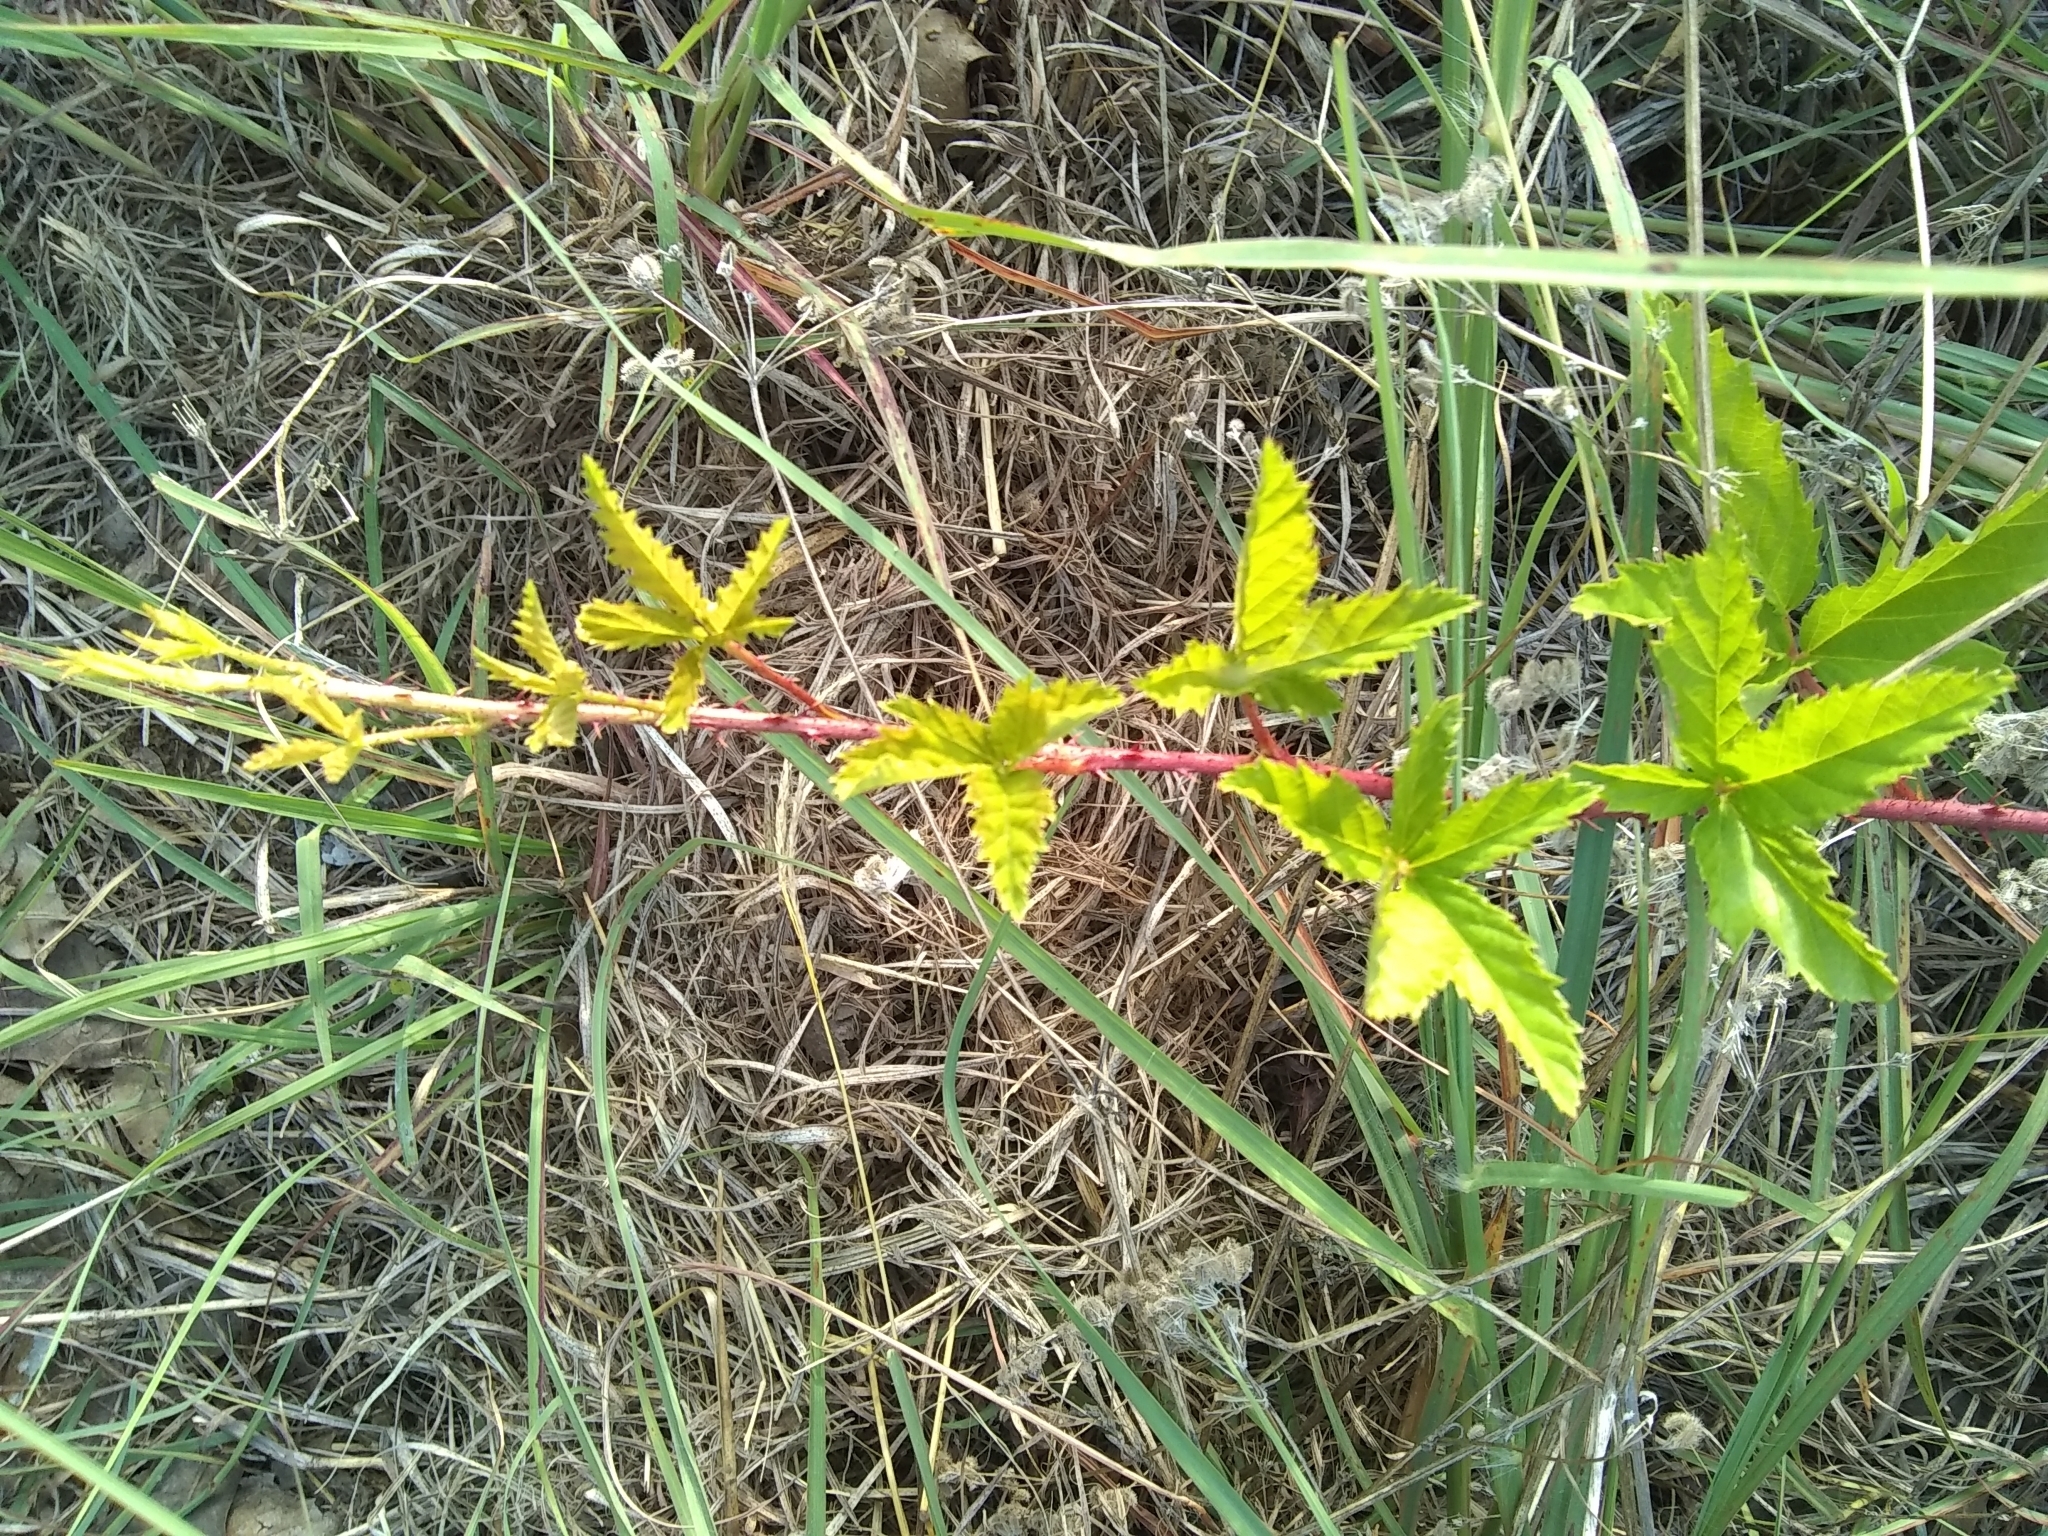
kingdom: Plantae
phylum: Tracheophyta
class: Magnoliopsida
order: Rosales
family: Rosaceae
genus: Rubus
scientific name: Rubus trivialis
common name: Southern dewberry
